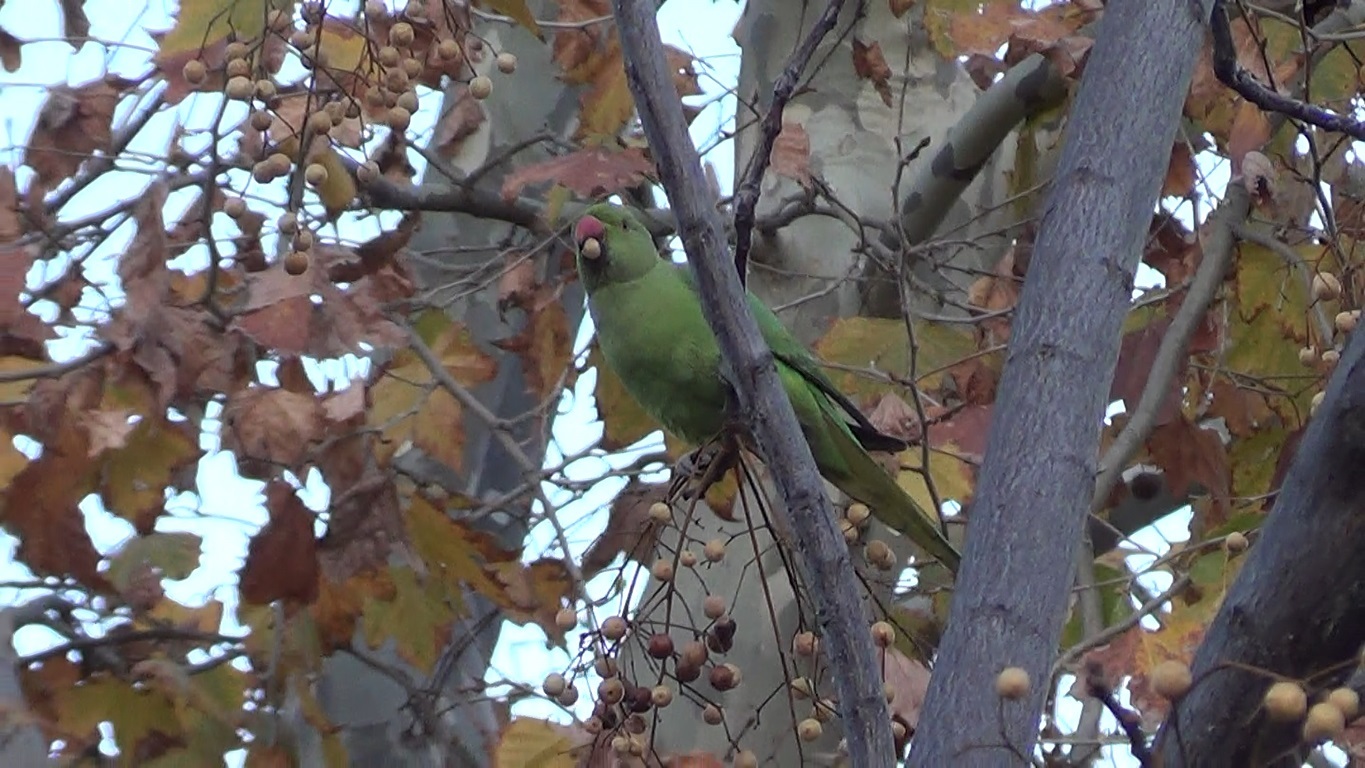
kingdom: Animalia
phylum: Chordata
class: Aves
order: Psittaciformes
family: Psittacidae
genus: Psittacula
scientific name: Psittacula krameri
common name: Rose-ringed parakeet
